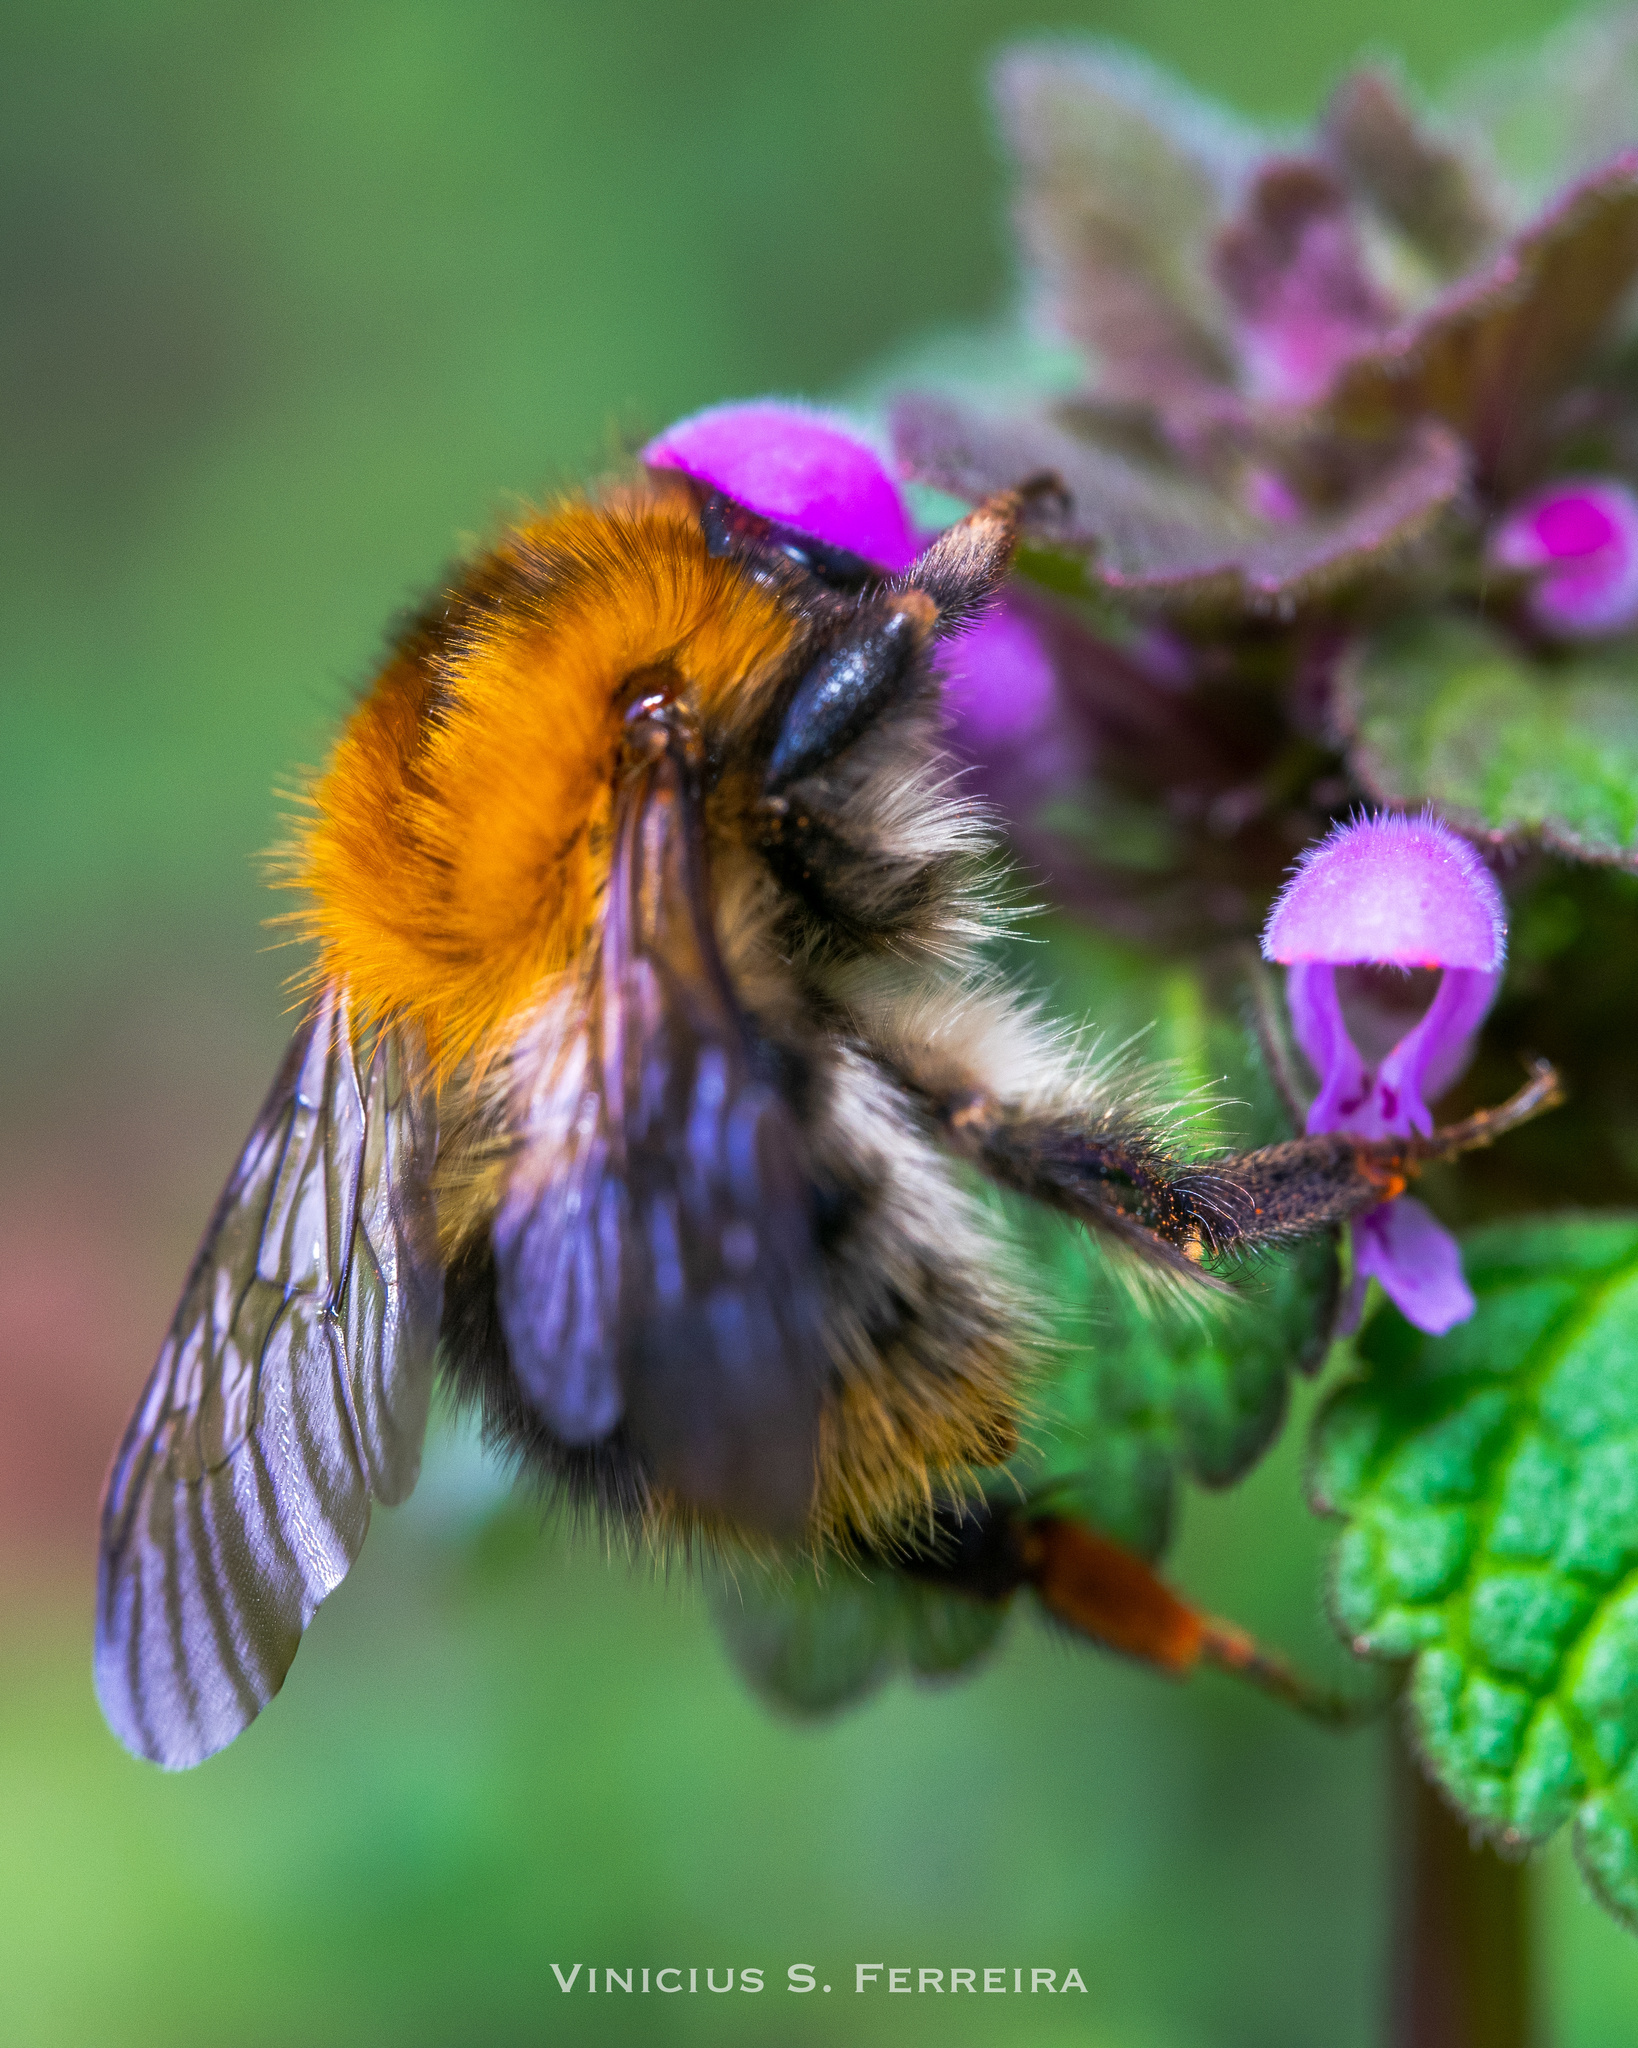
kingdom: Animalia
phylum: Arthropoda
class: Insecta
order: Hymenoptera
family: Apidae
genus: Bombus
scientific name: Bombus pascuorum
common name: Common carder bee
